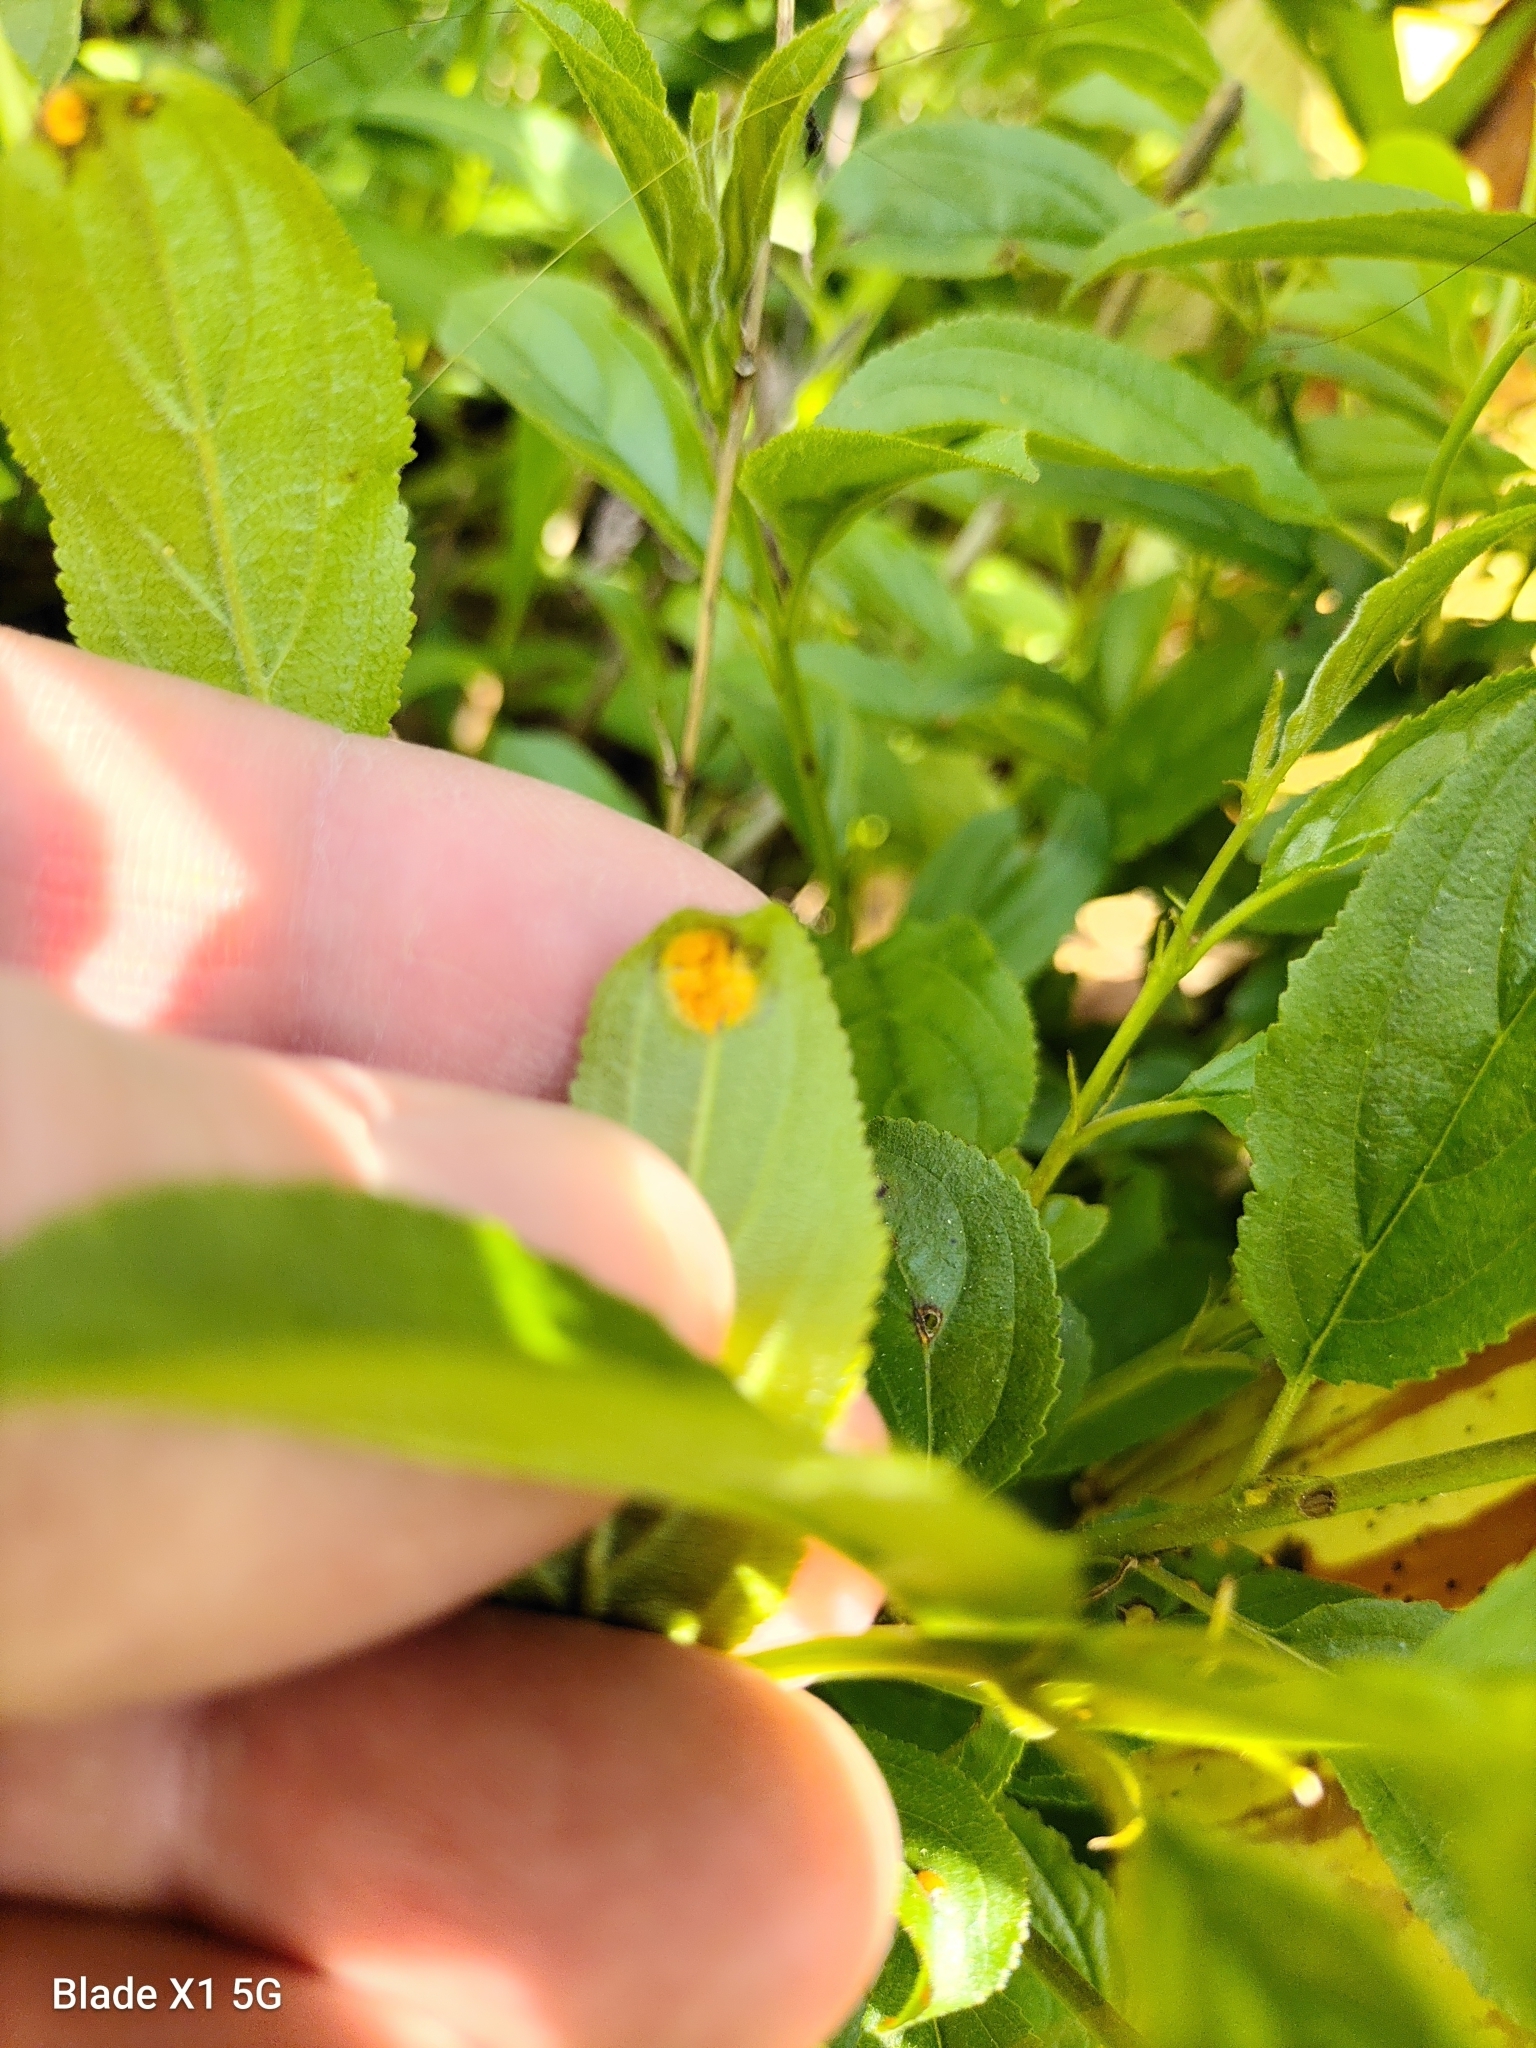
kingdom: Fungi
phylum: Basidiomycota
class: Pucciniomycetes
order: Pucciniales
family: Pucciniaceae
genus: Puccinia
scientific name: Puccinia coronata
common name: Crown rust
